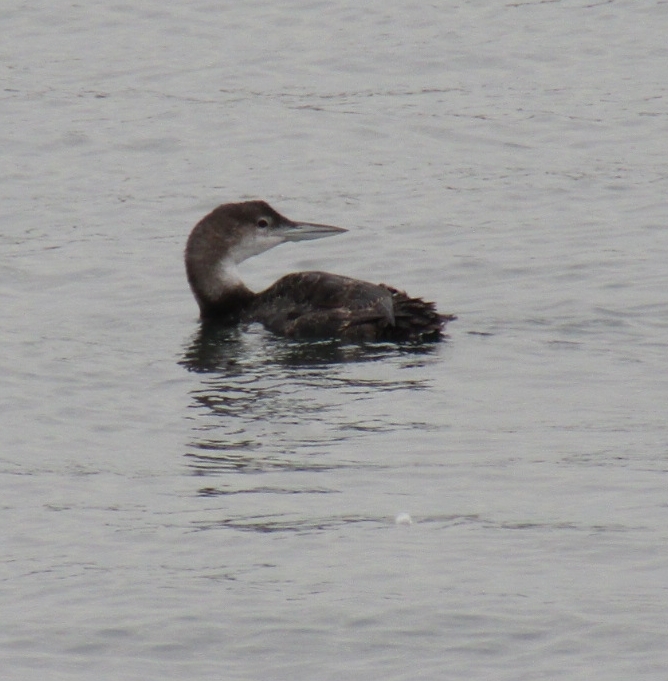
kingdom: Animalia
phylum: Chordata
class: Aves
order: Gaviiformes
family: Gaviidae
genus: Gavia
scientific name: Gavia immer
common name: Common loon
